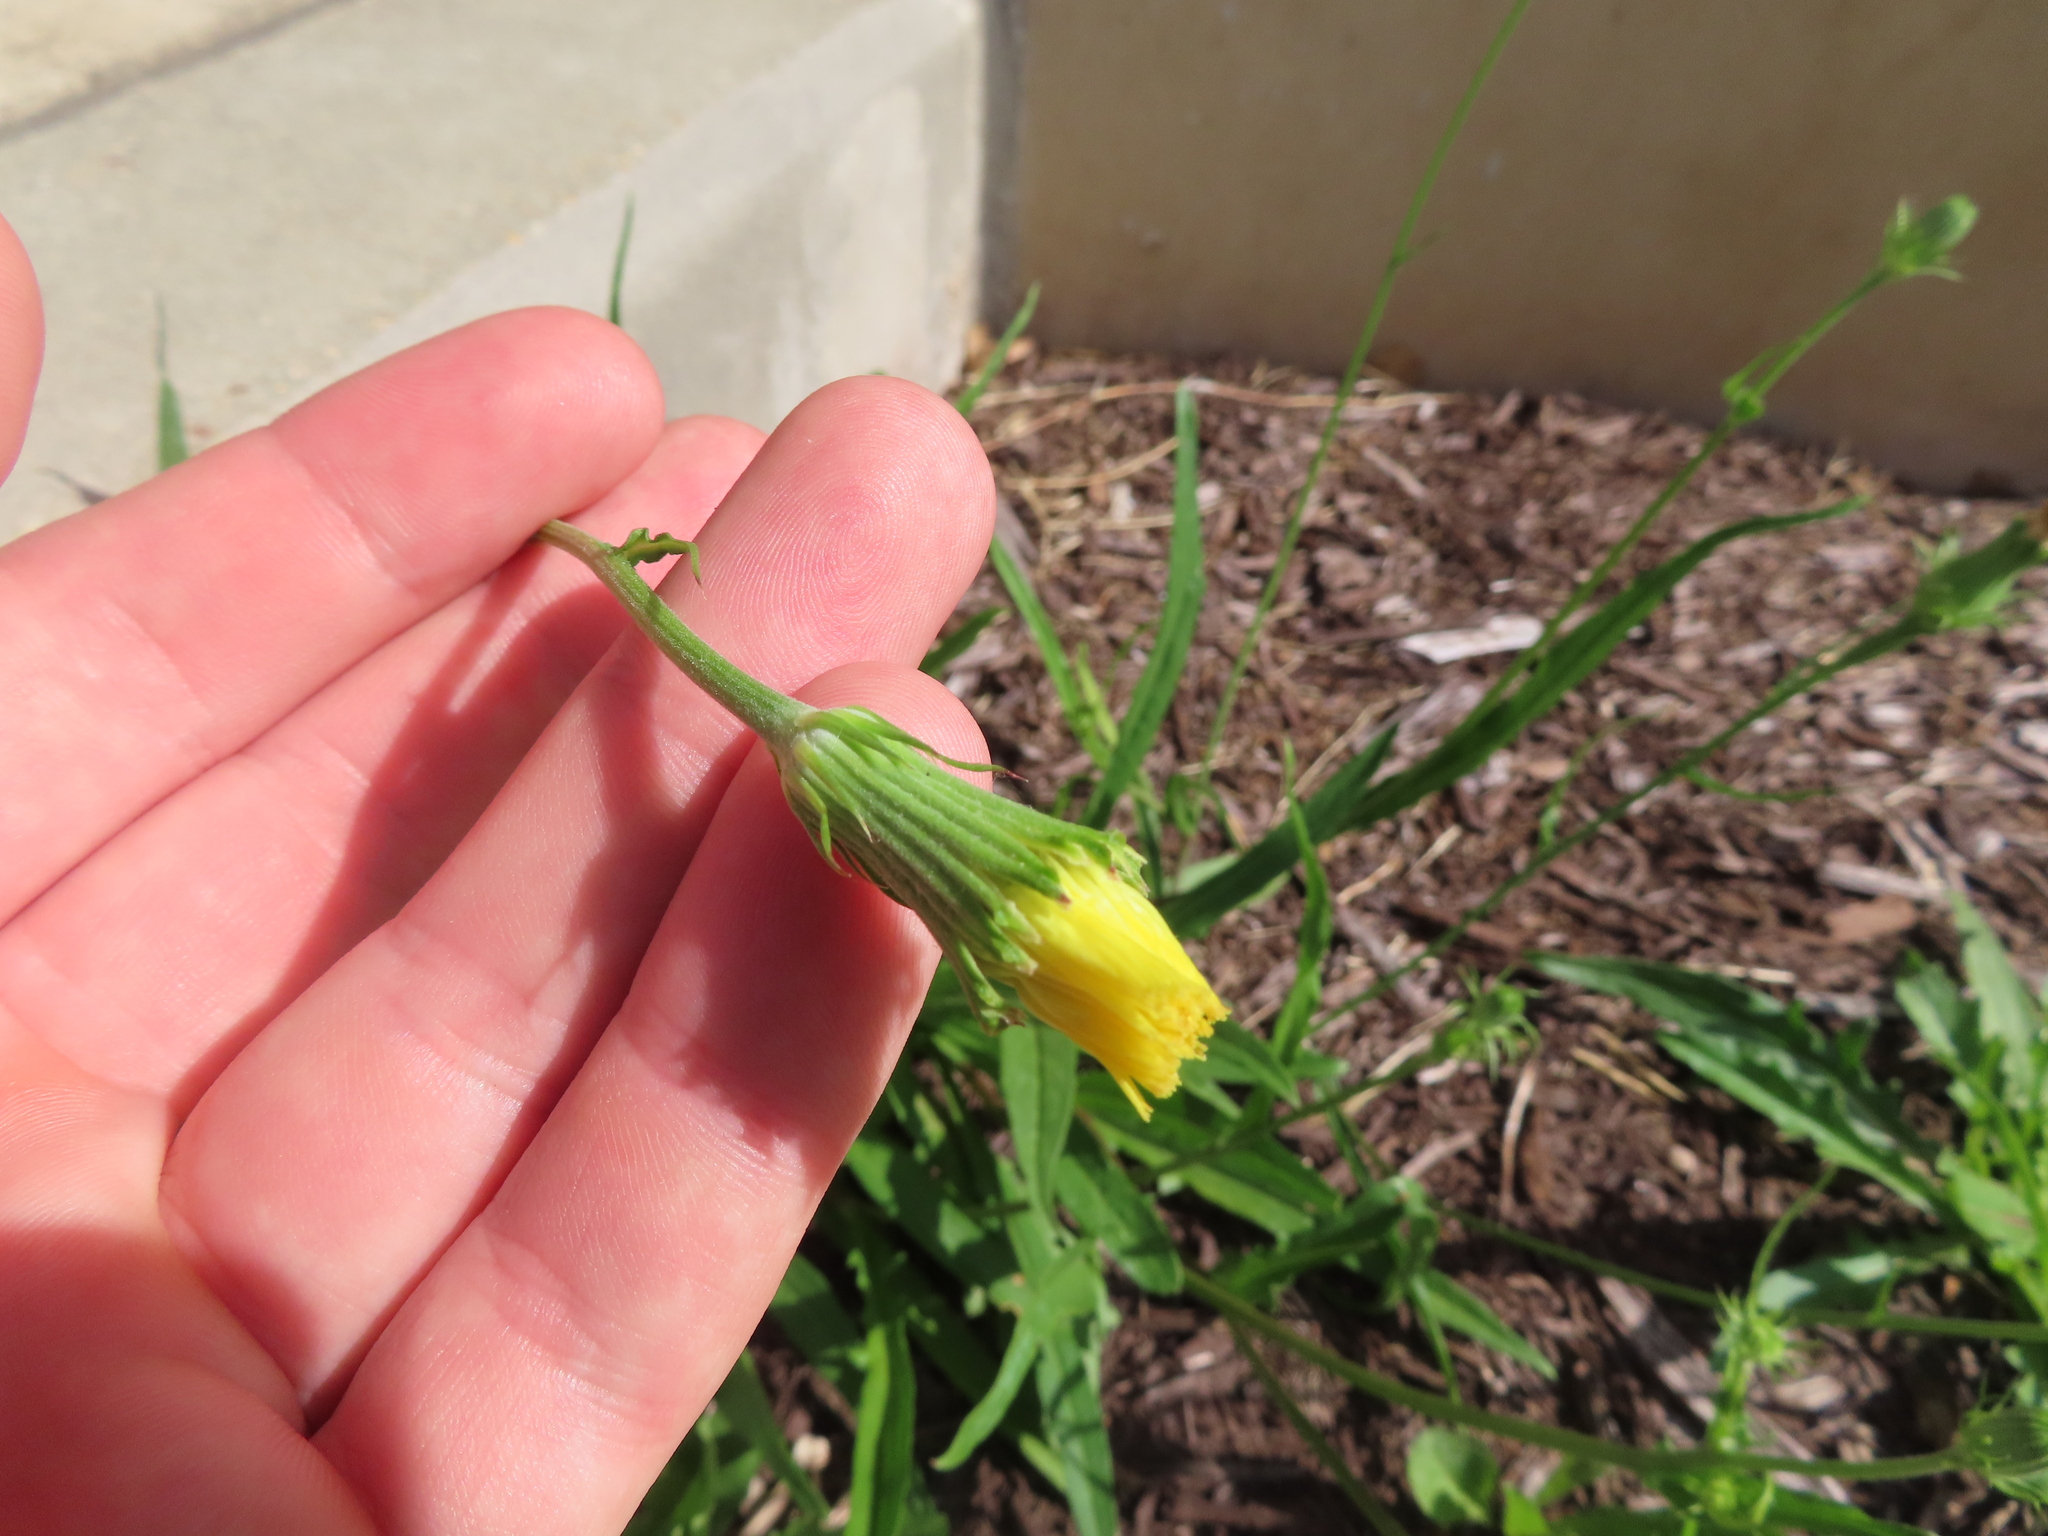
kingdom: Plantae
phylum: Tracheophyta
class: Magnoliopsida
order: Asterales
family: Asteraceae
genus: Pyrrhopappus
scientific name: Pyrrhopappus carolinianus
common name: Carolina desert-chicory
